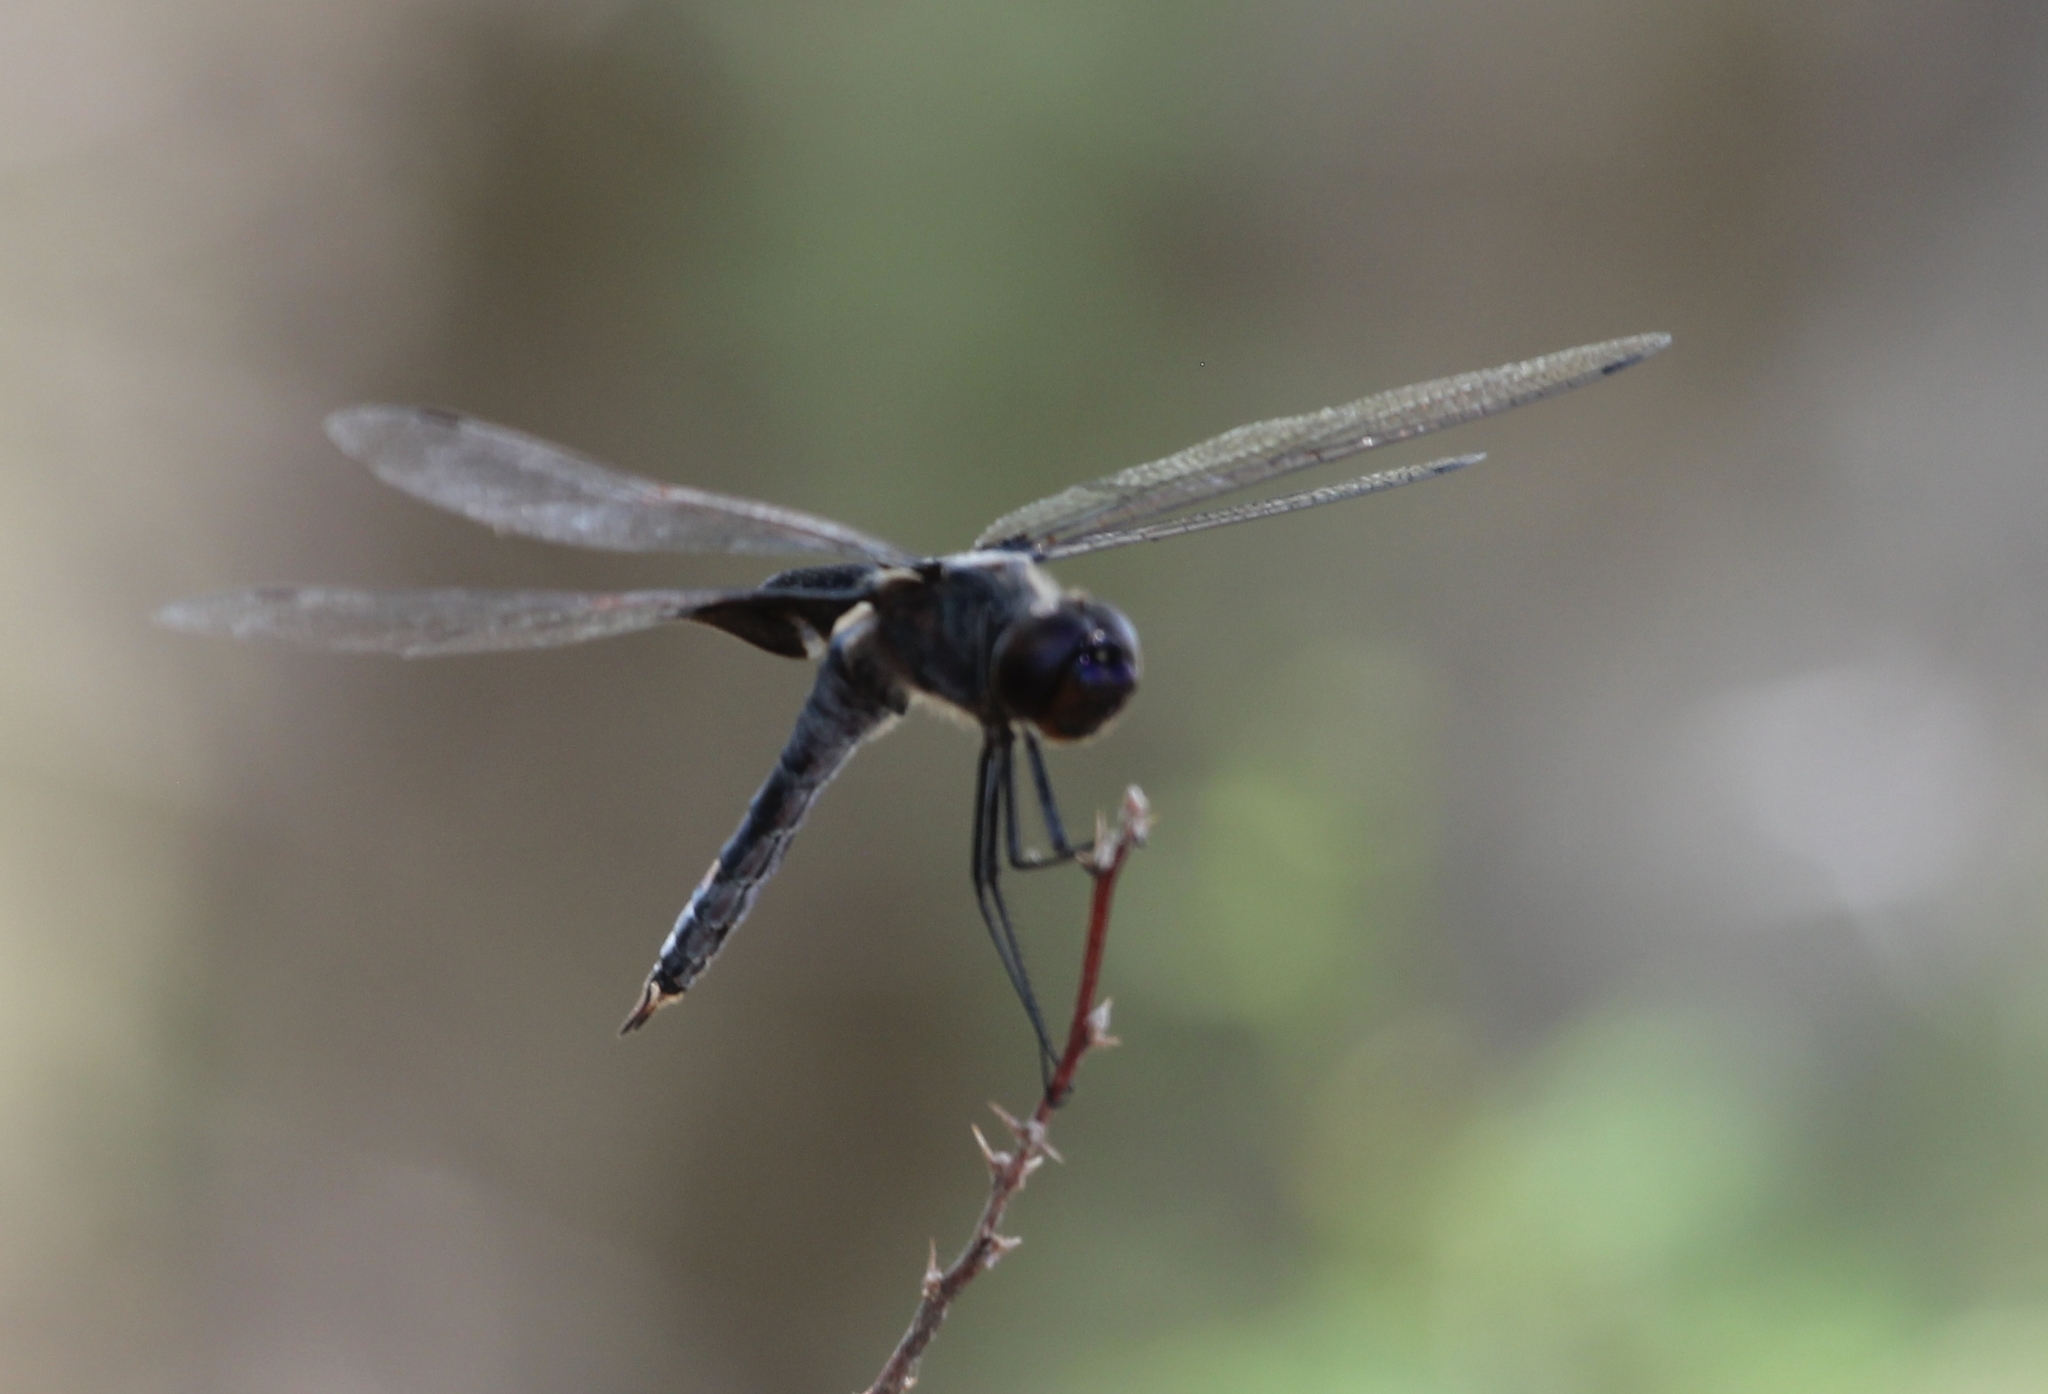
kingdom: Animalia
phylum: Arthropoda
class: Insecta
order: Odonata
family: Libellulidae
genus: Tramea
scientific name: Tramea lacerata
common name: Black saddlebags
